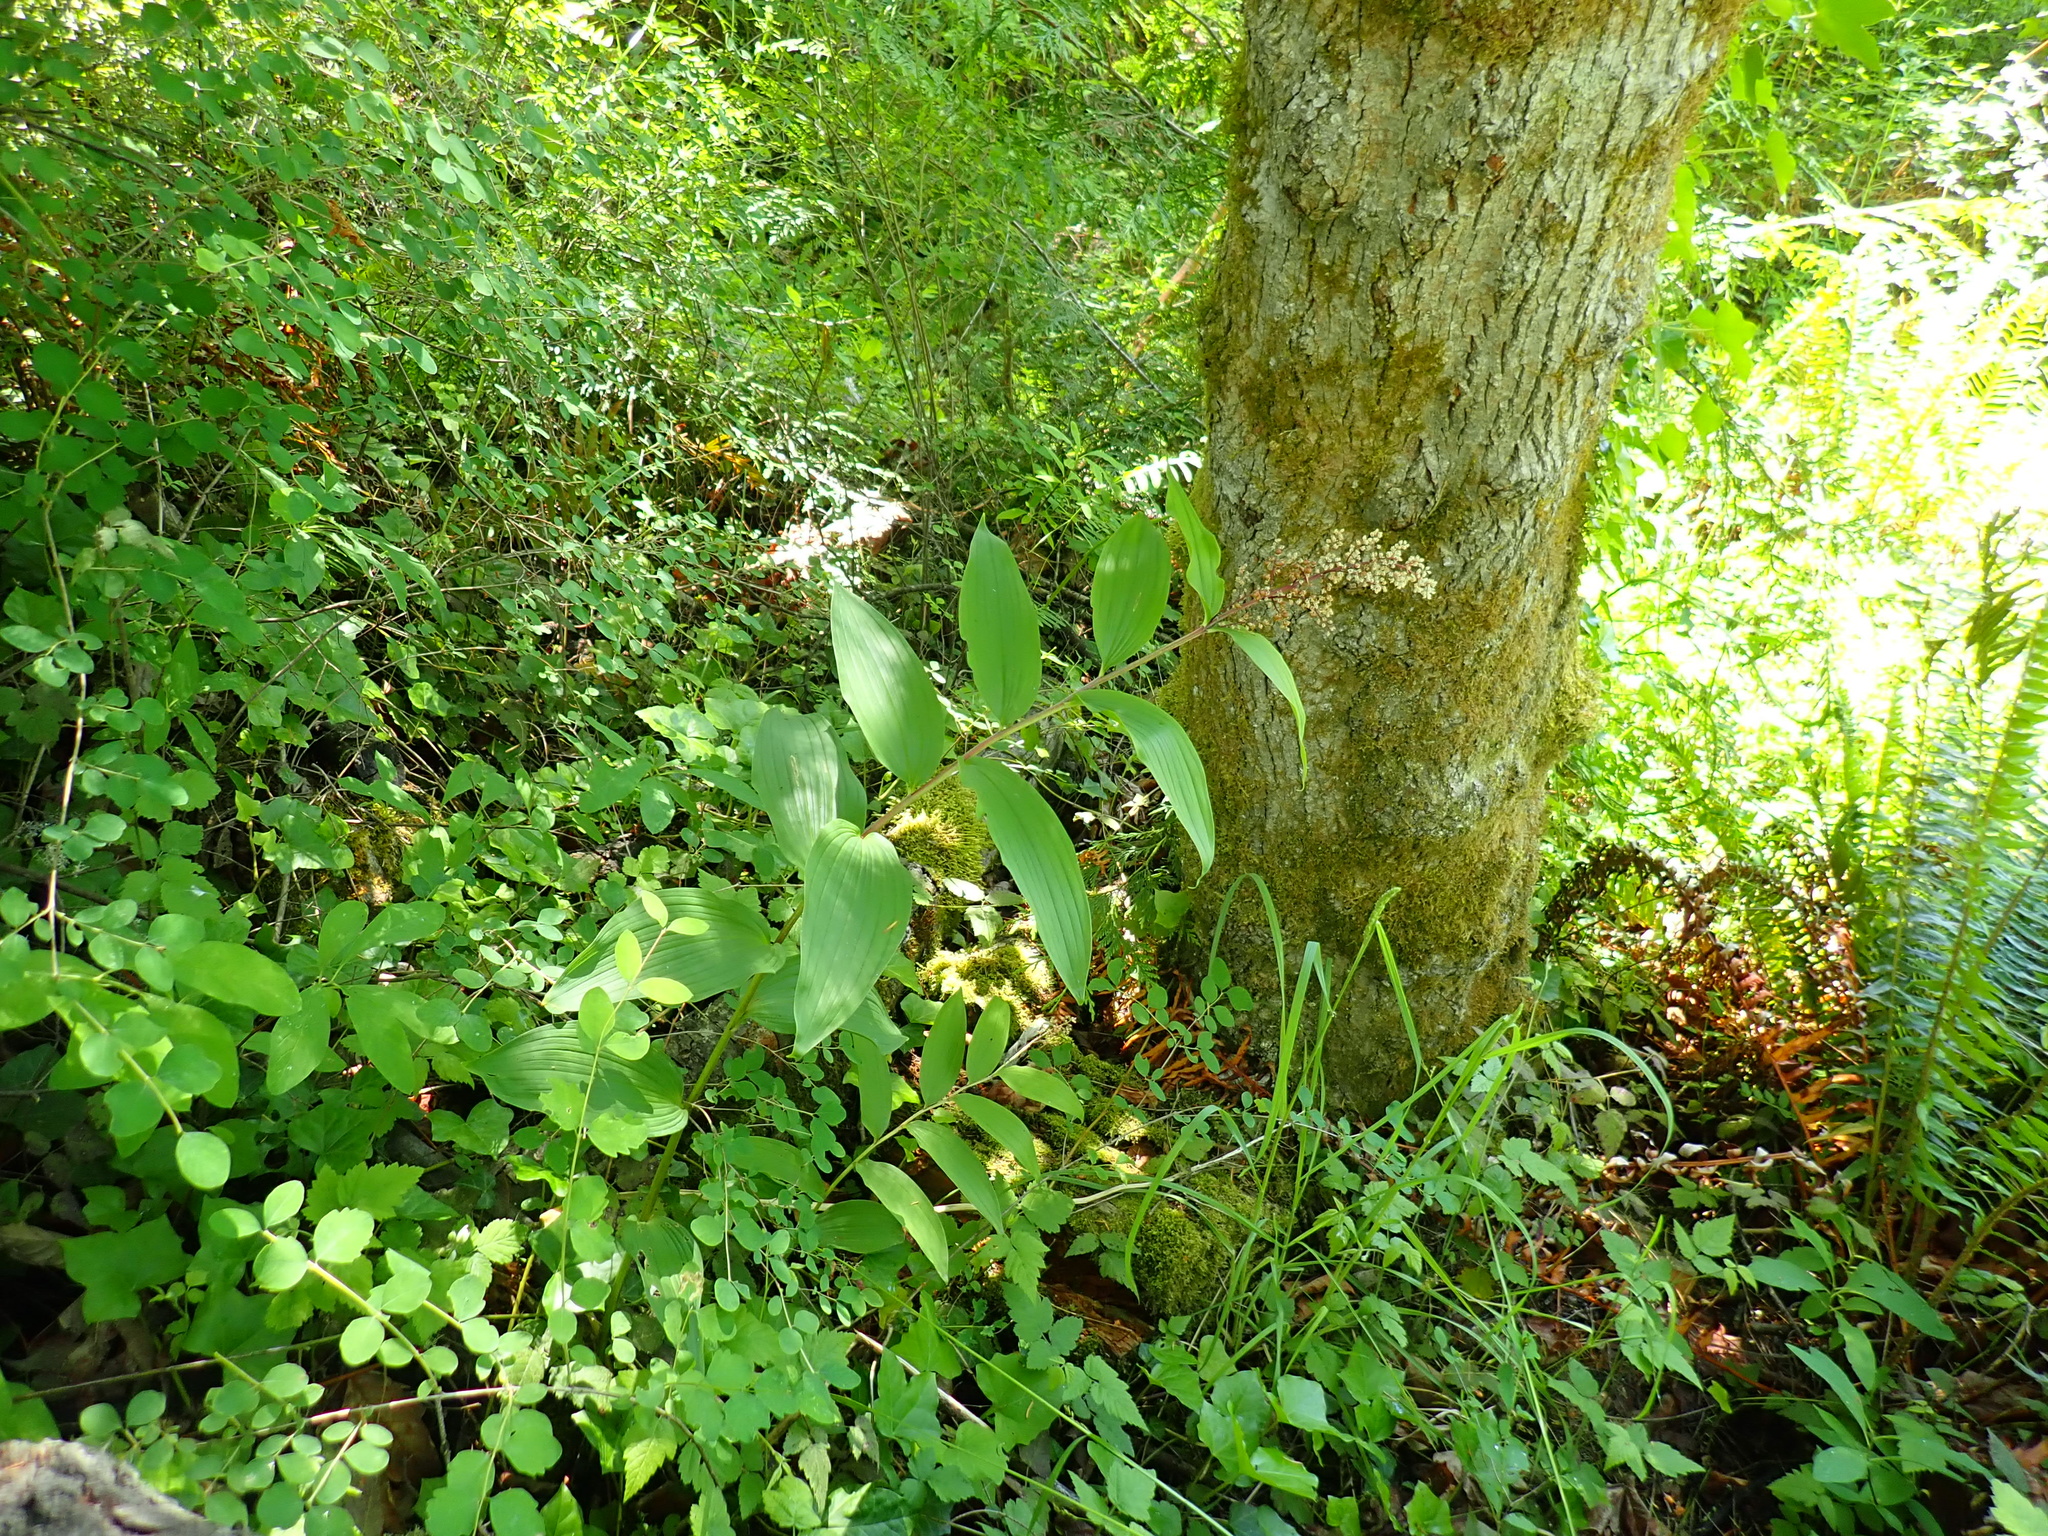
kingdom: Plantae
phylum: Tracheophyta
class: Liliopsida
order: Asparagales
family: Asparagaceae
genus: Maianthemum
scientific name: Maianthemum racemosum
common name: False spikenard
